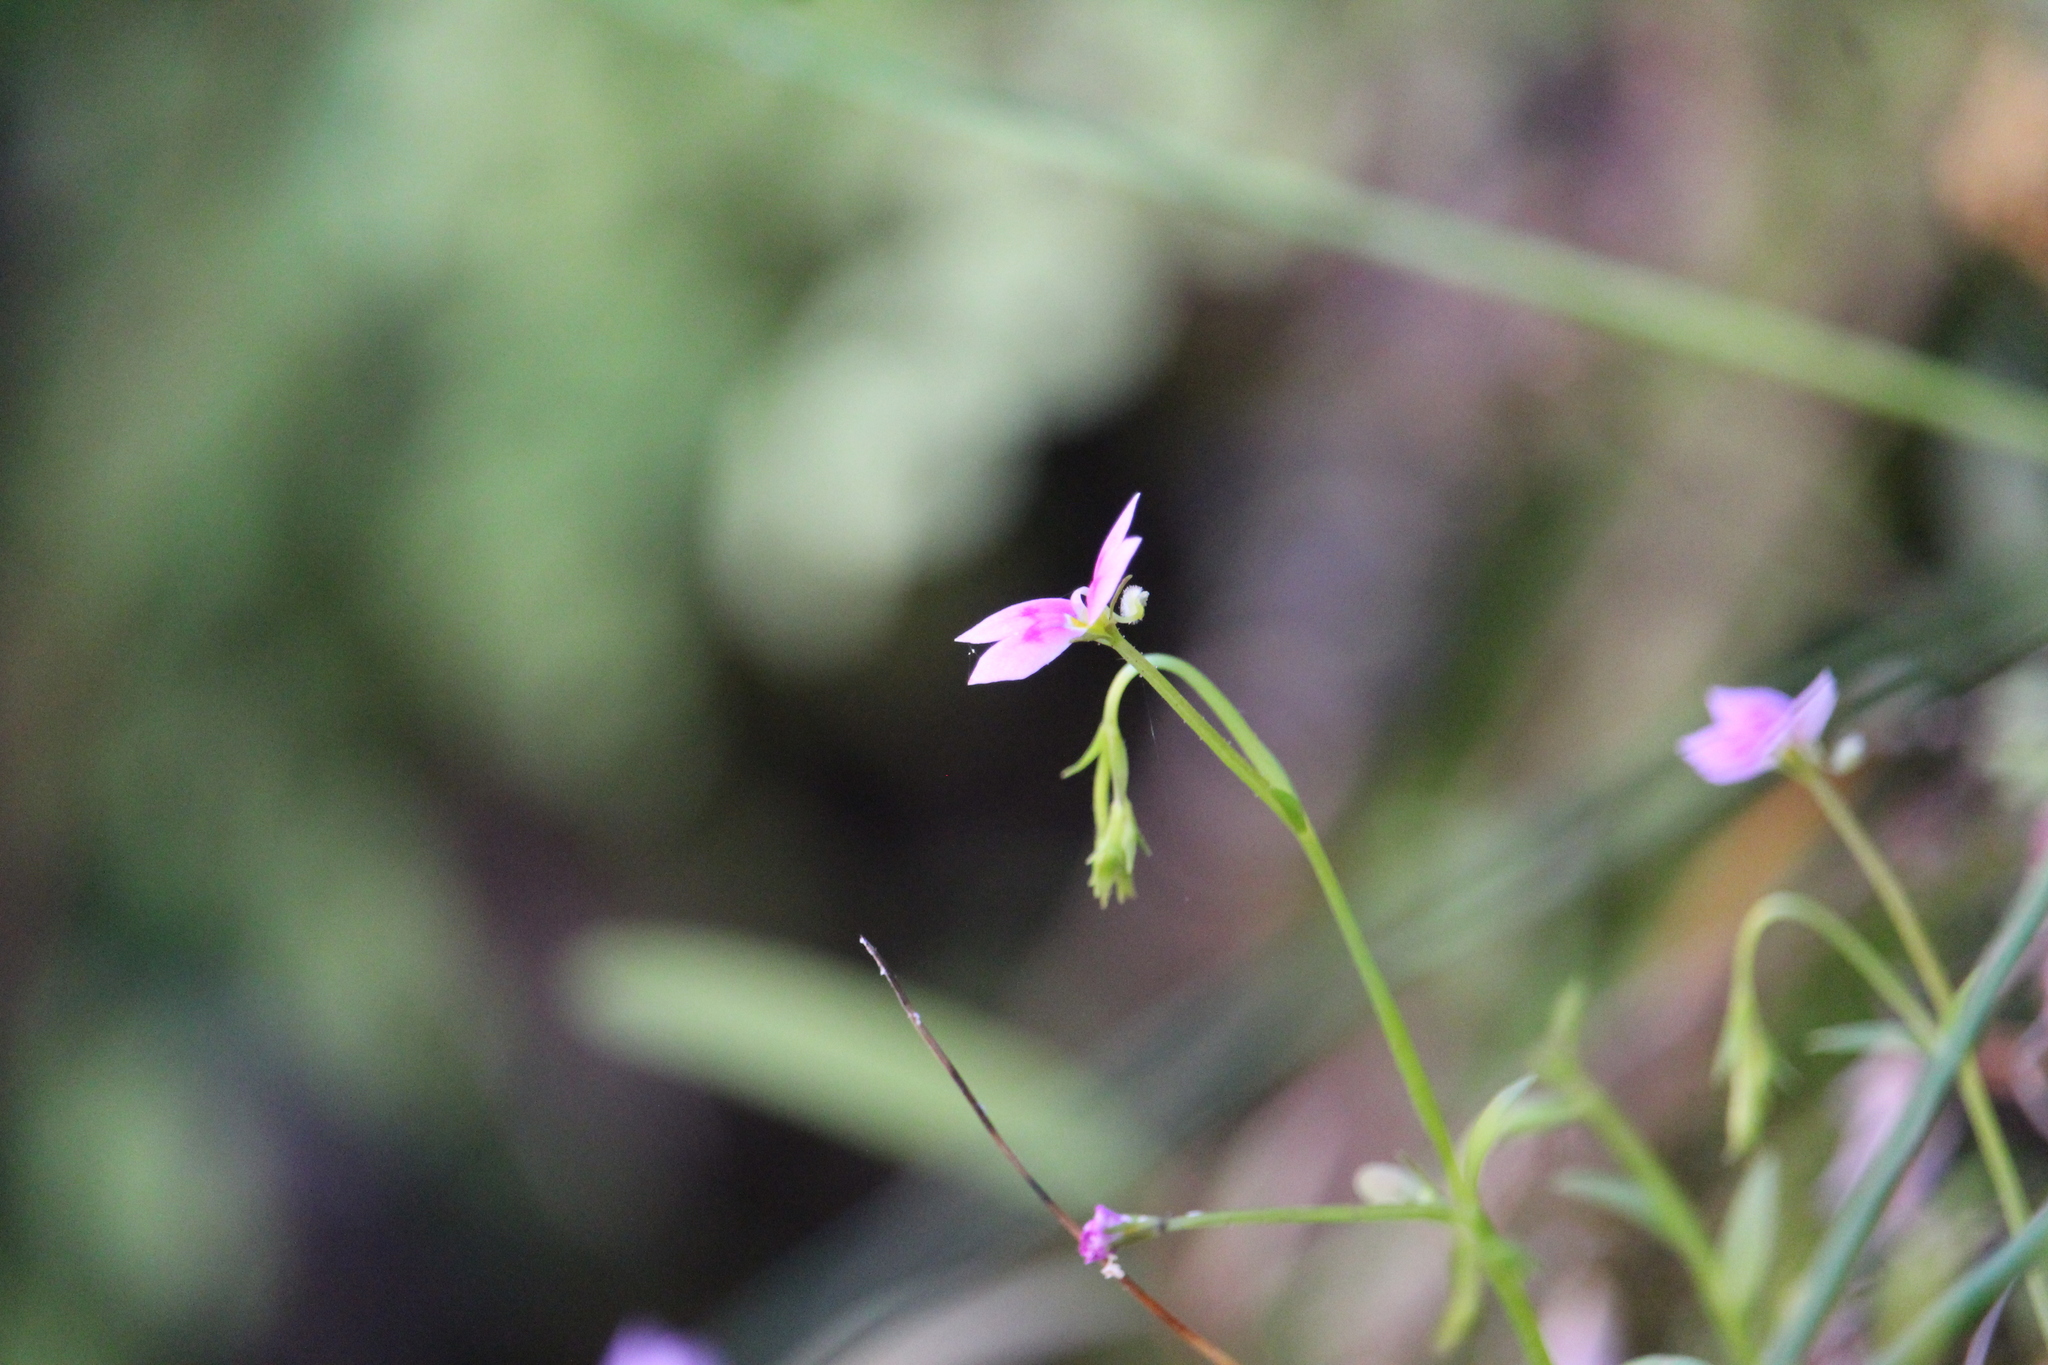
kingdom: Plantae
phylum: Tracheophyta
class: Magnoliopsida
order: Asterales
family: Stylidiaceae
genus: Stylidium
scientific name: Stylidium fluminense
